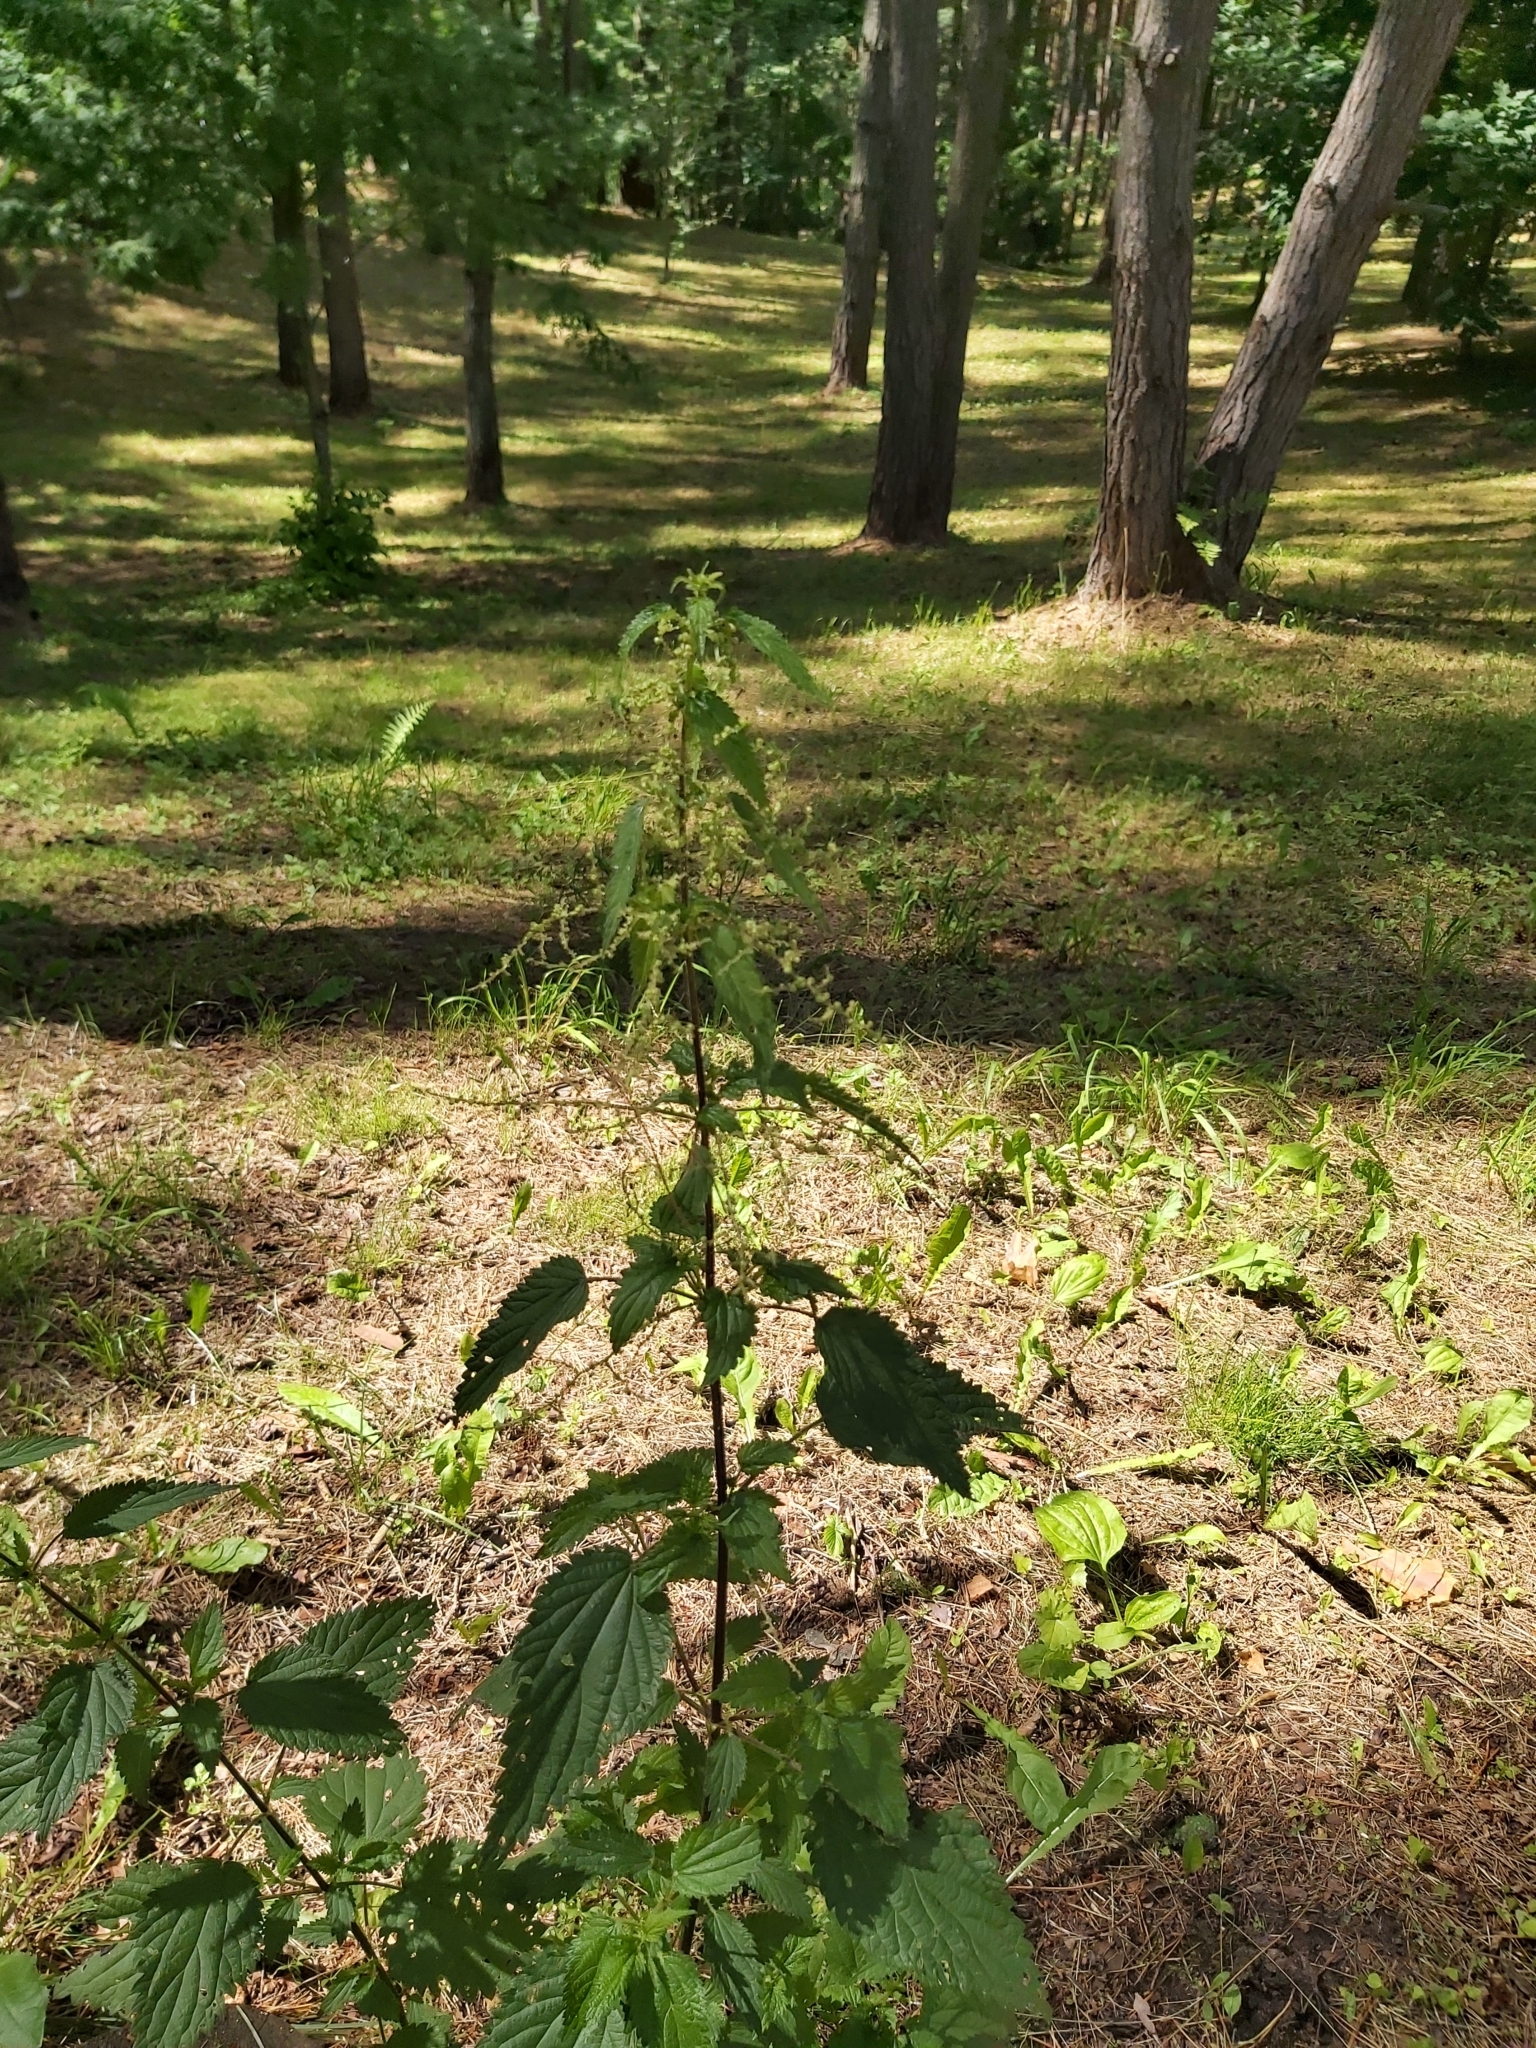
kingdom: Plantae
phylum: Tracheophyta
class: Magnoliopsida
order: Rosales
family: Urticaceae
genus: Urtica
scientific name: Urtica dioica
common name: Common nettle
